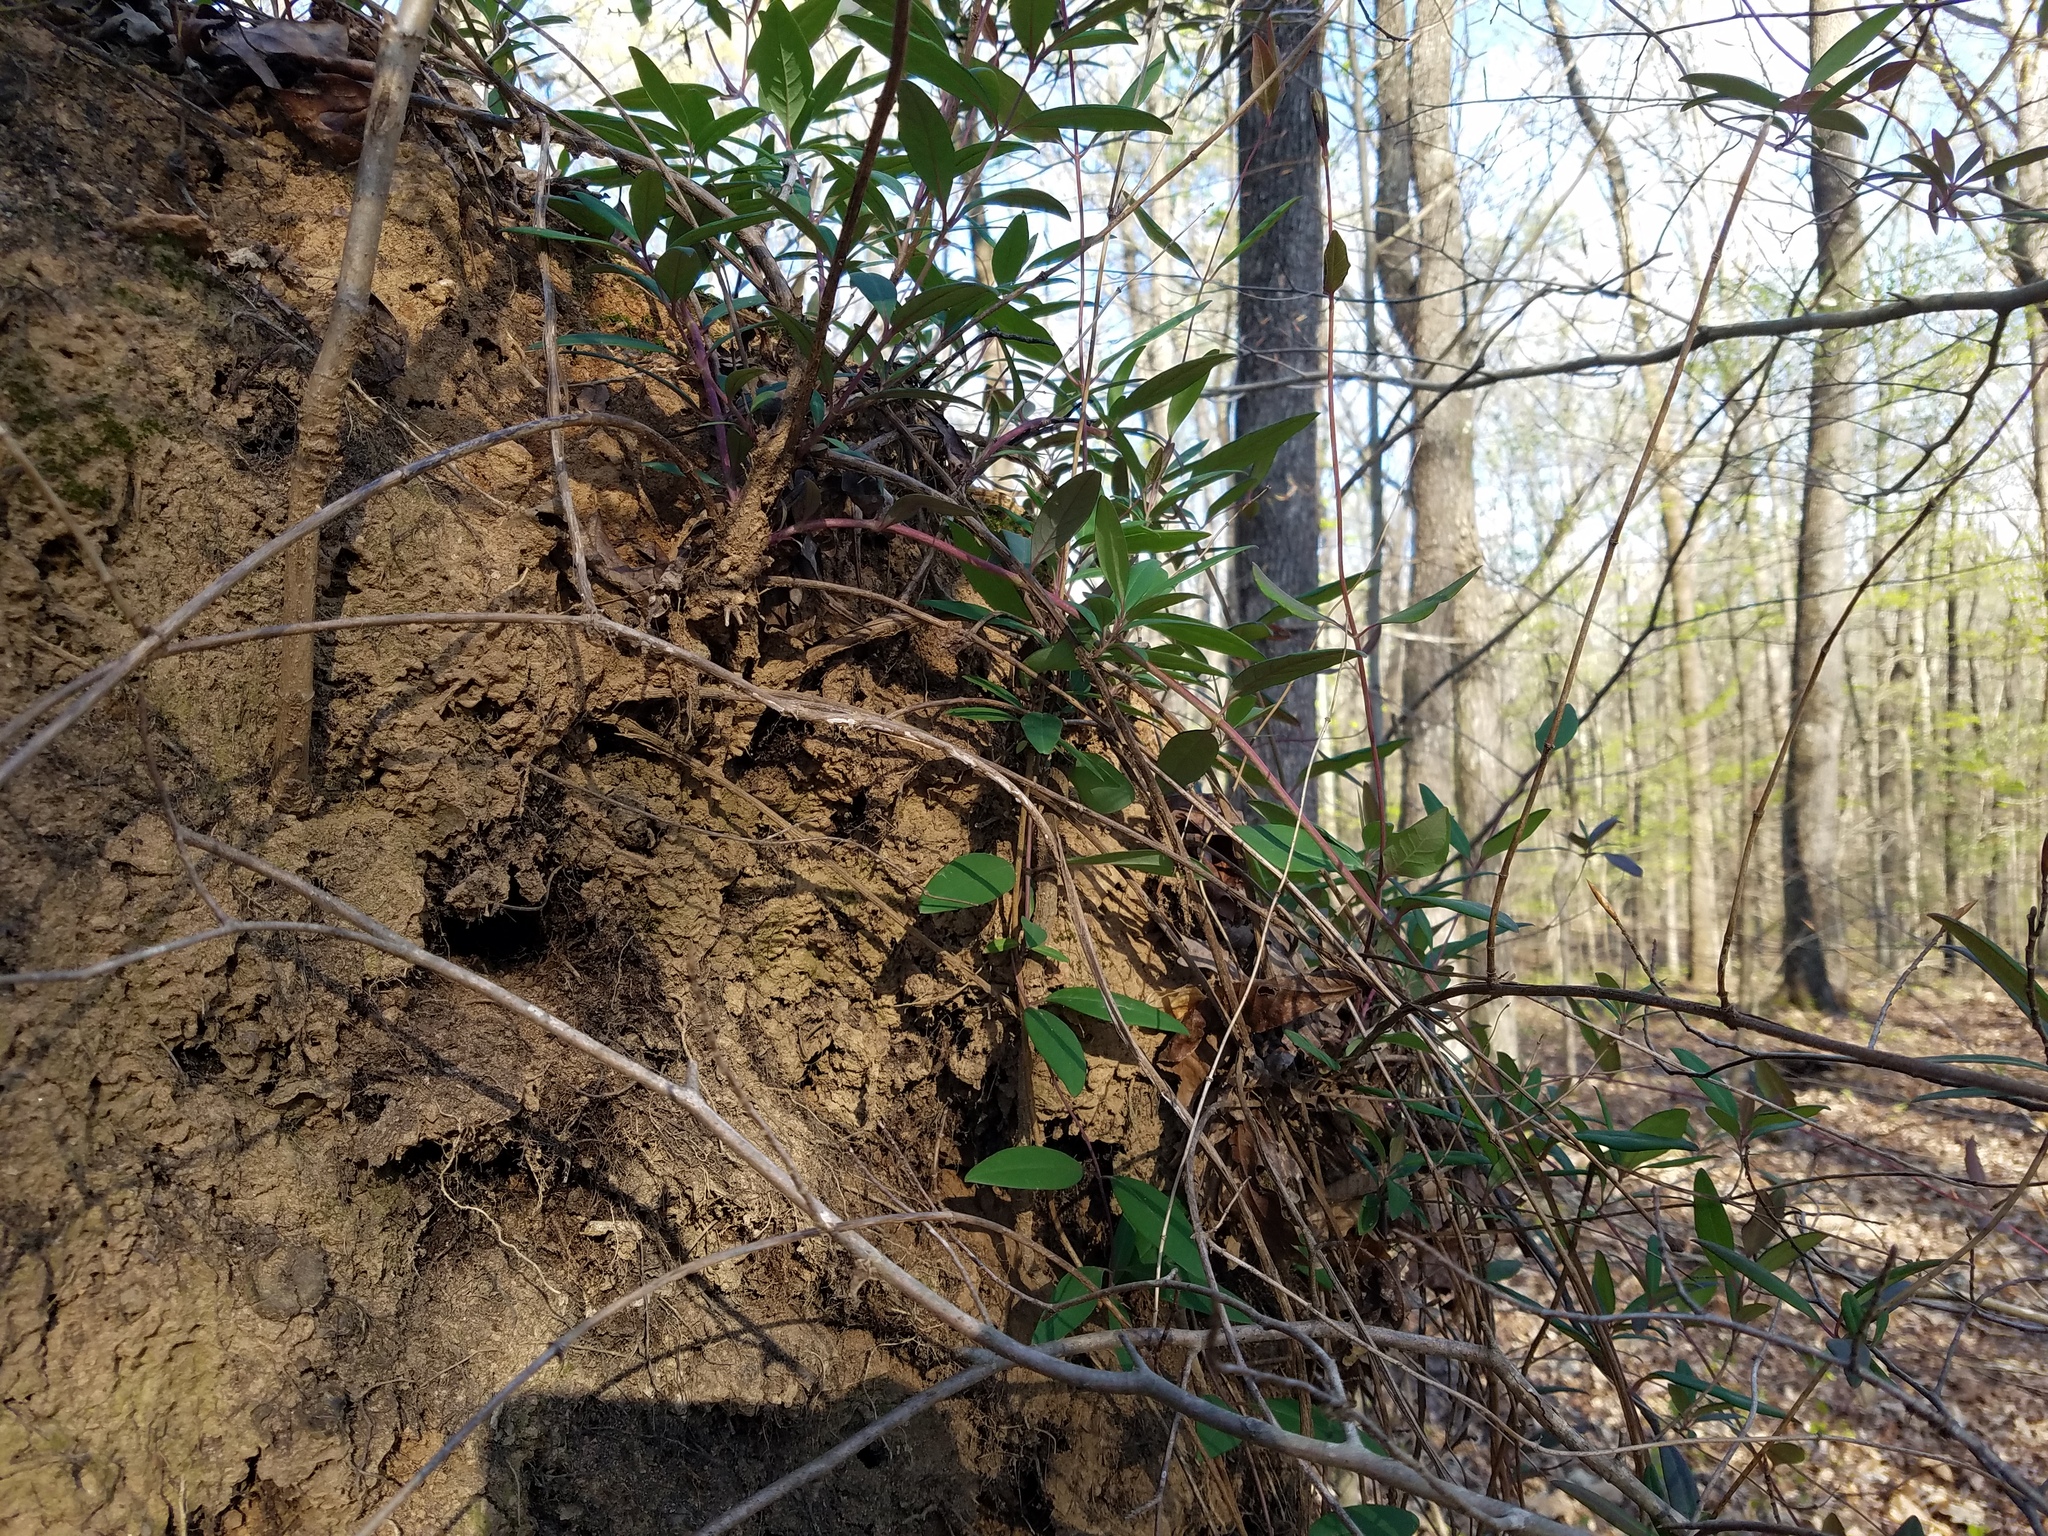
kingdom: Plantae
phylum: Tracheophyta
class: Magnoliopsida
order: Dipsacales
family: Caprifoliaceae
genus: Lonicera
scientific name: Lonicera sempervirens
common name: Coral honeysuckle
